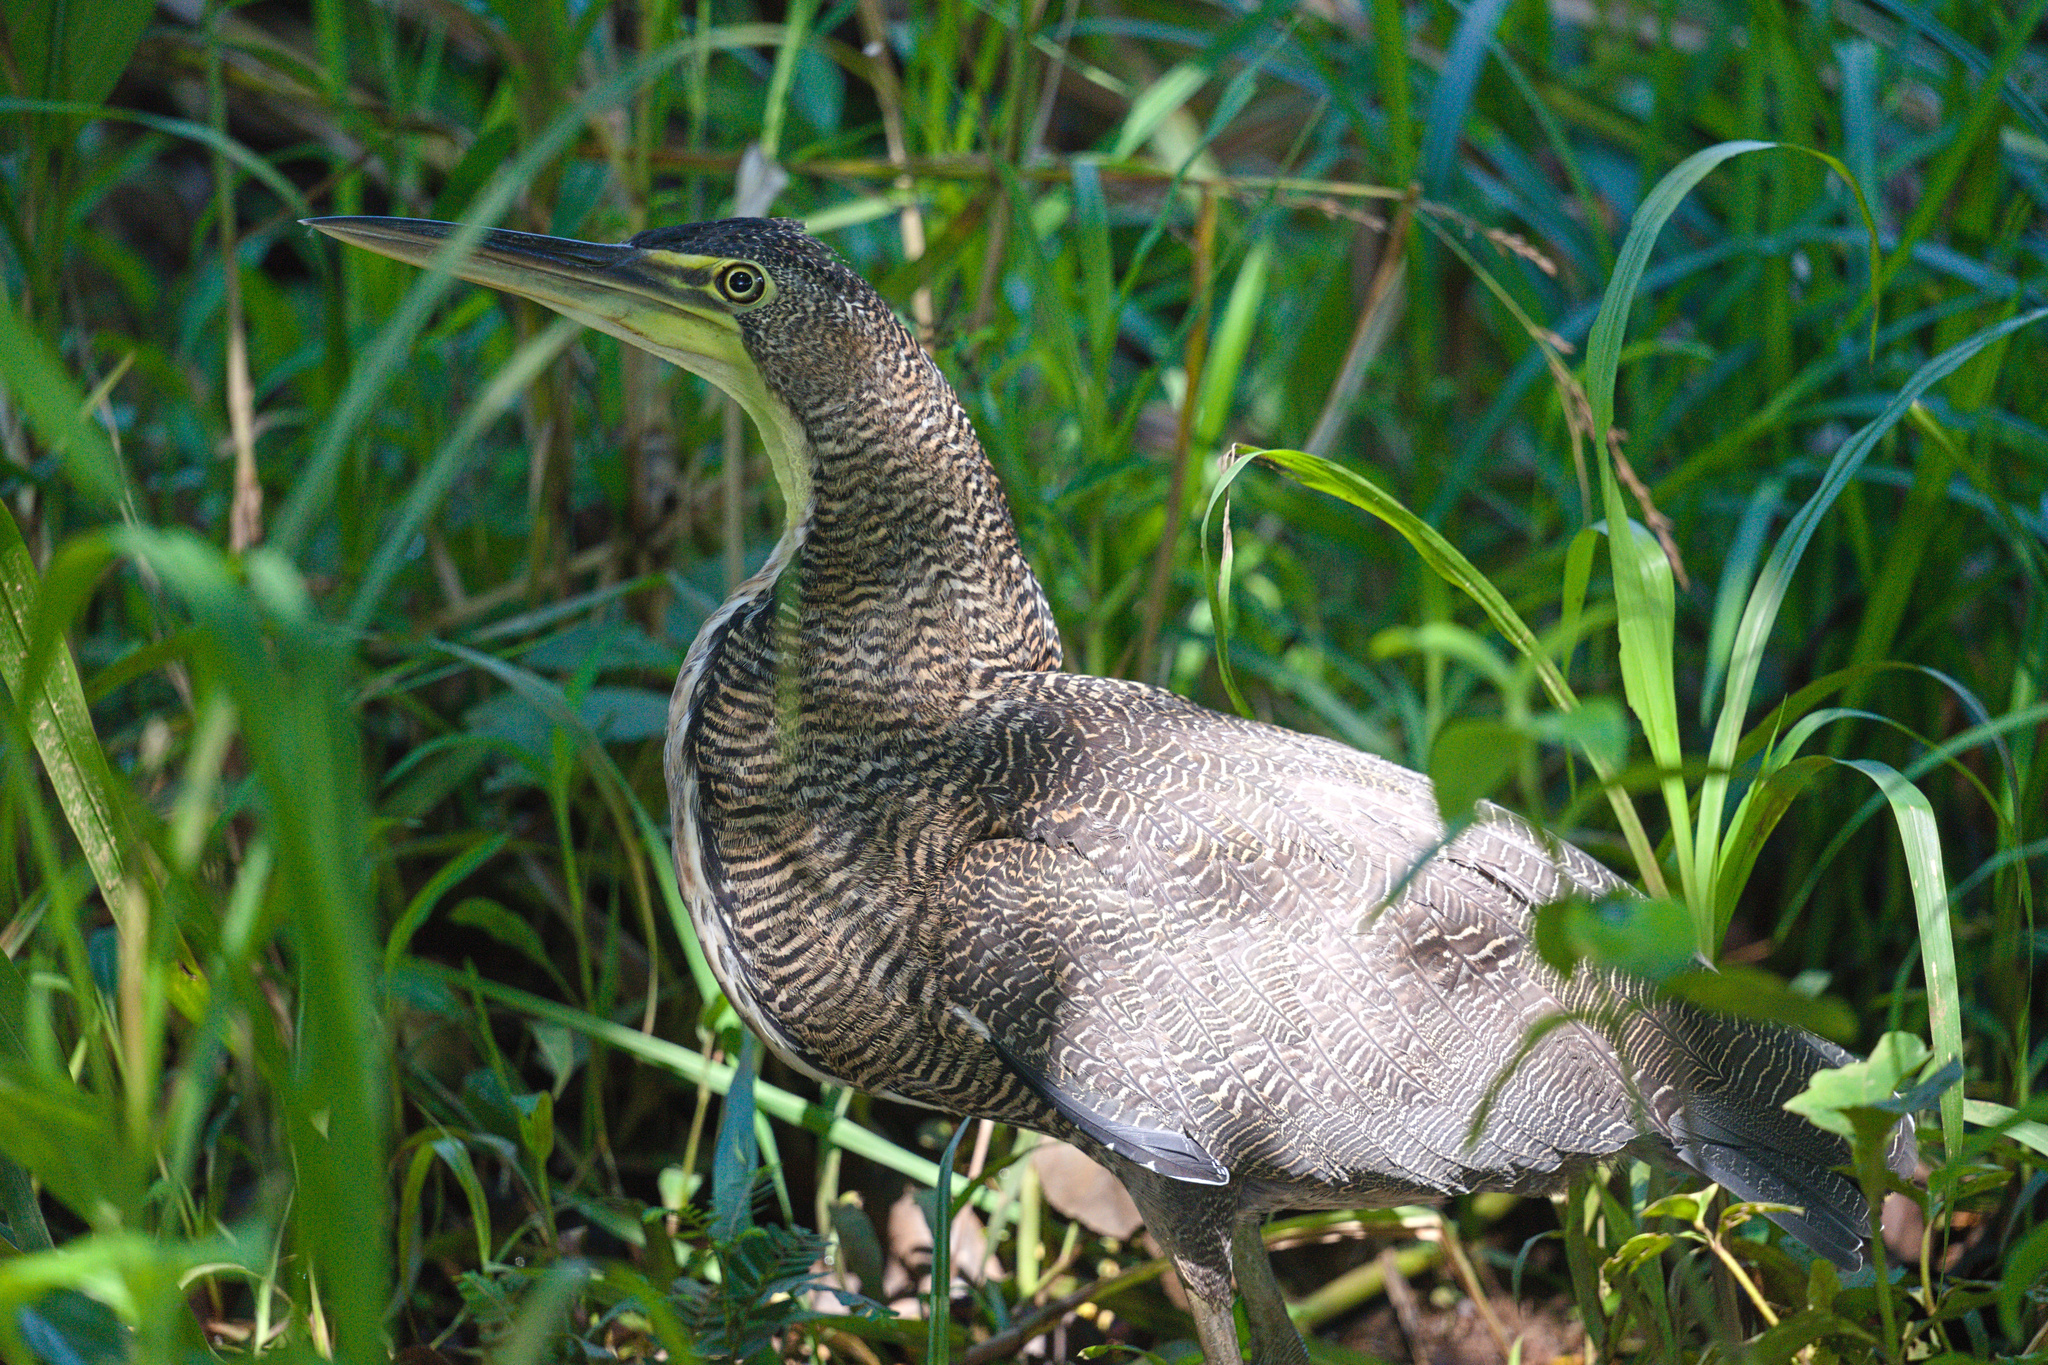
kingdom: Animalia
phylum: Chordata
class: Aves
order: Pelecaniformes
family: Ardeidae
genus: Tigrisoma
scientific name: Tigrisoma mexicanum
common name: Bare-throated tiger-heron
